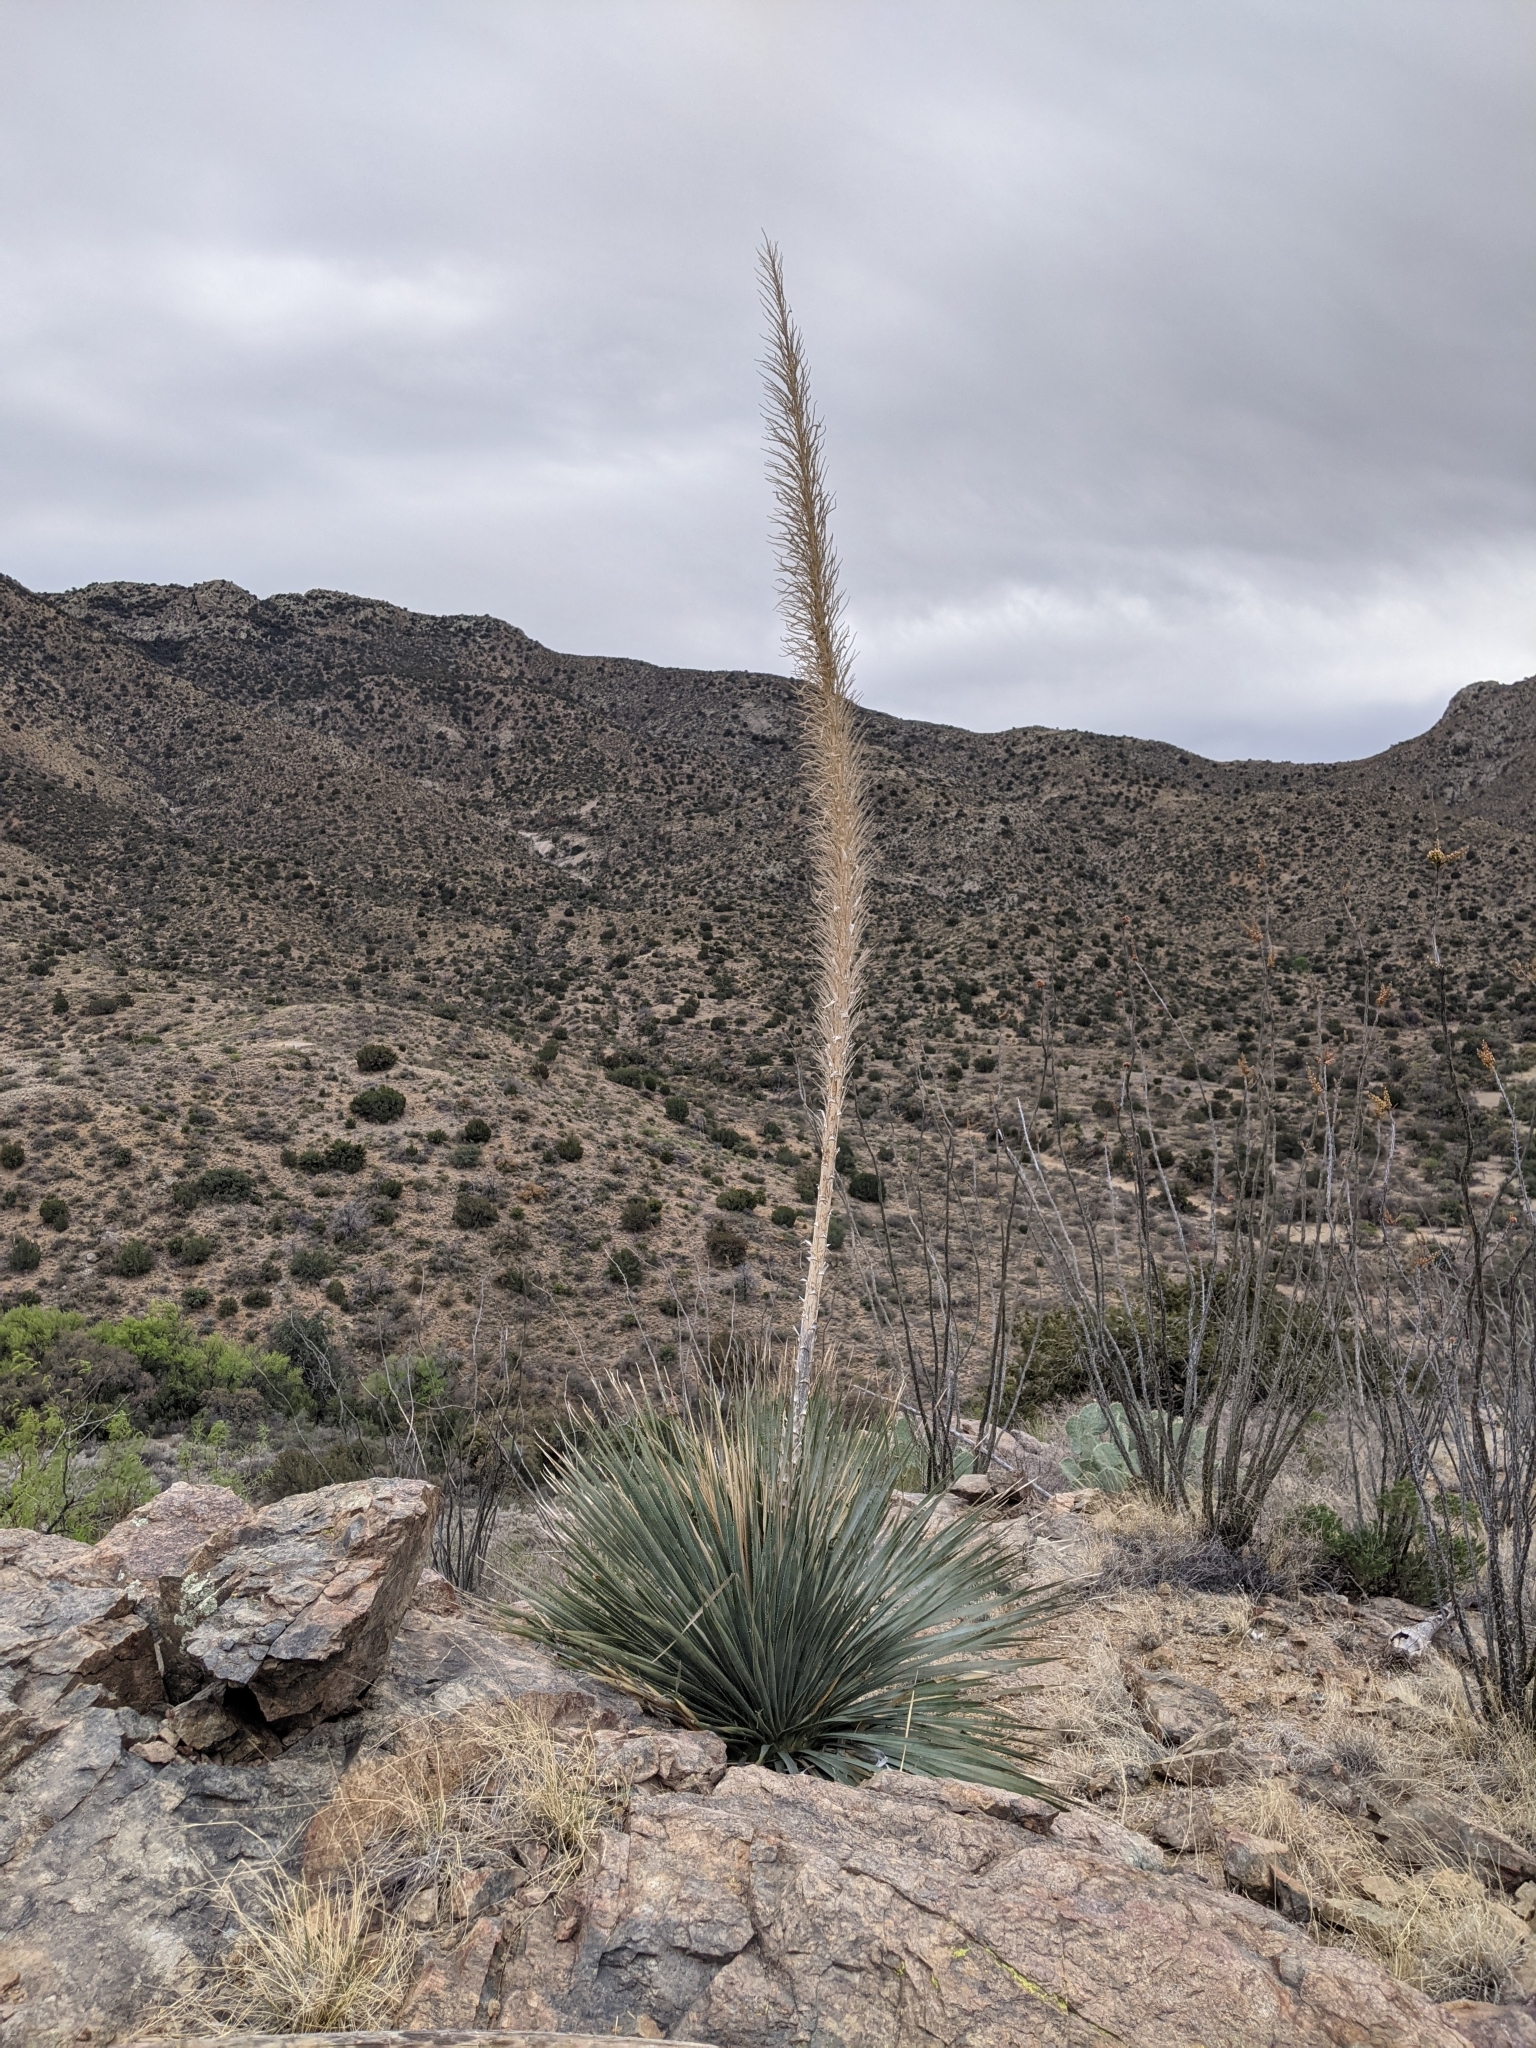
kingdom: Plantae
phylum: Tracheophyta
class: Liliopsida
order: Asparagales
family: Asparagaceae
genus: Dasylirion
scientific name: Dasylirion wheeleri
